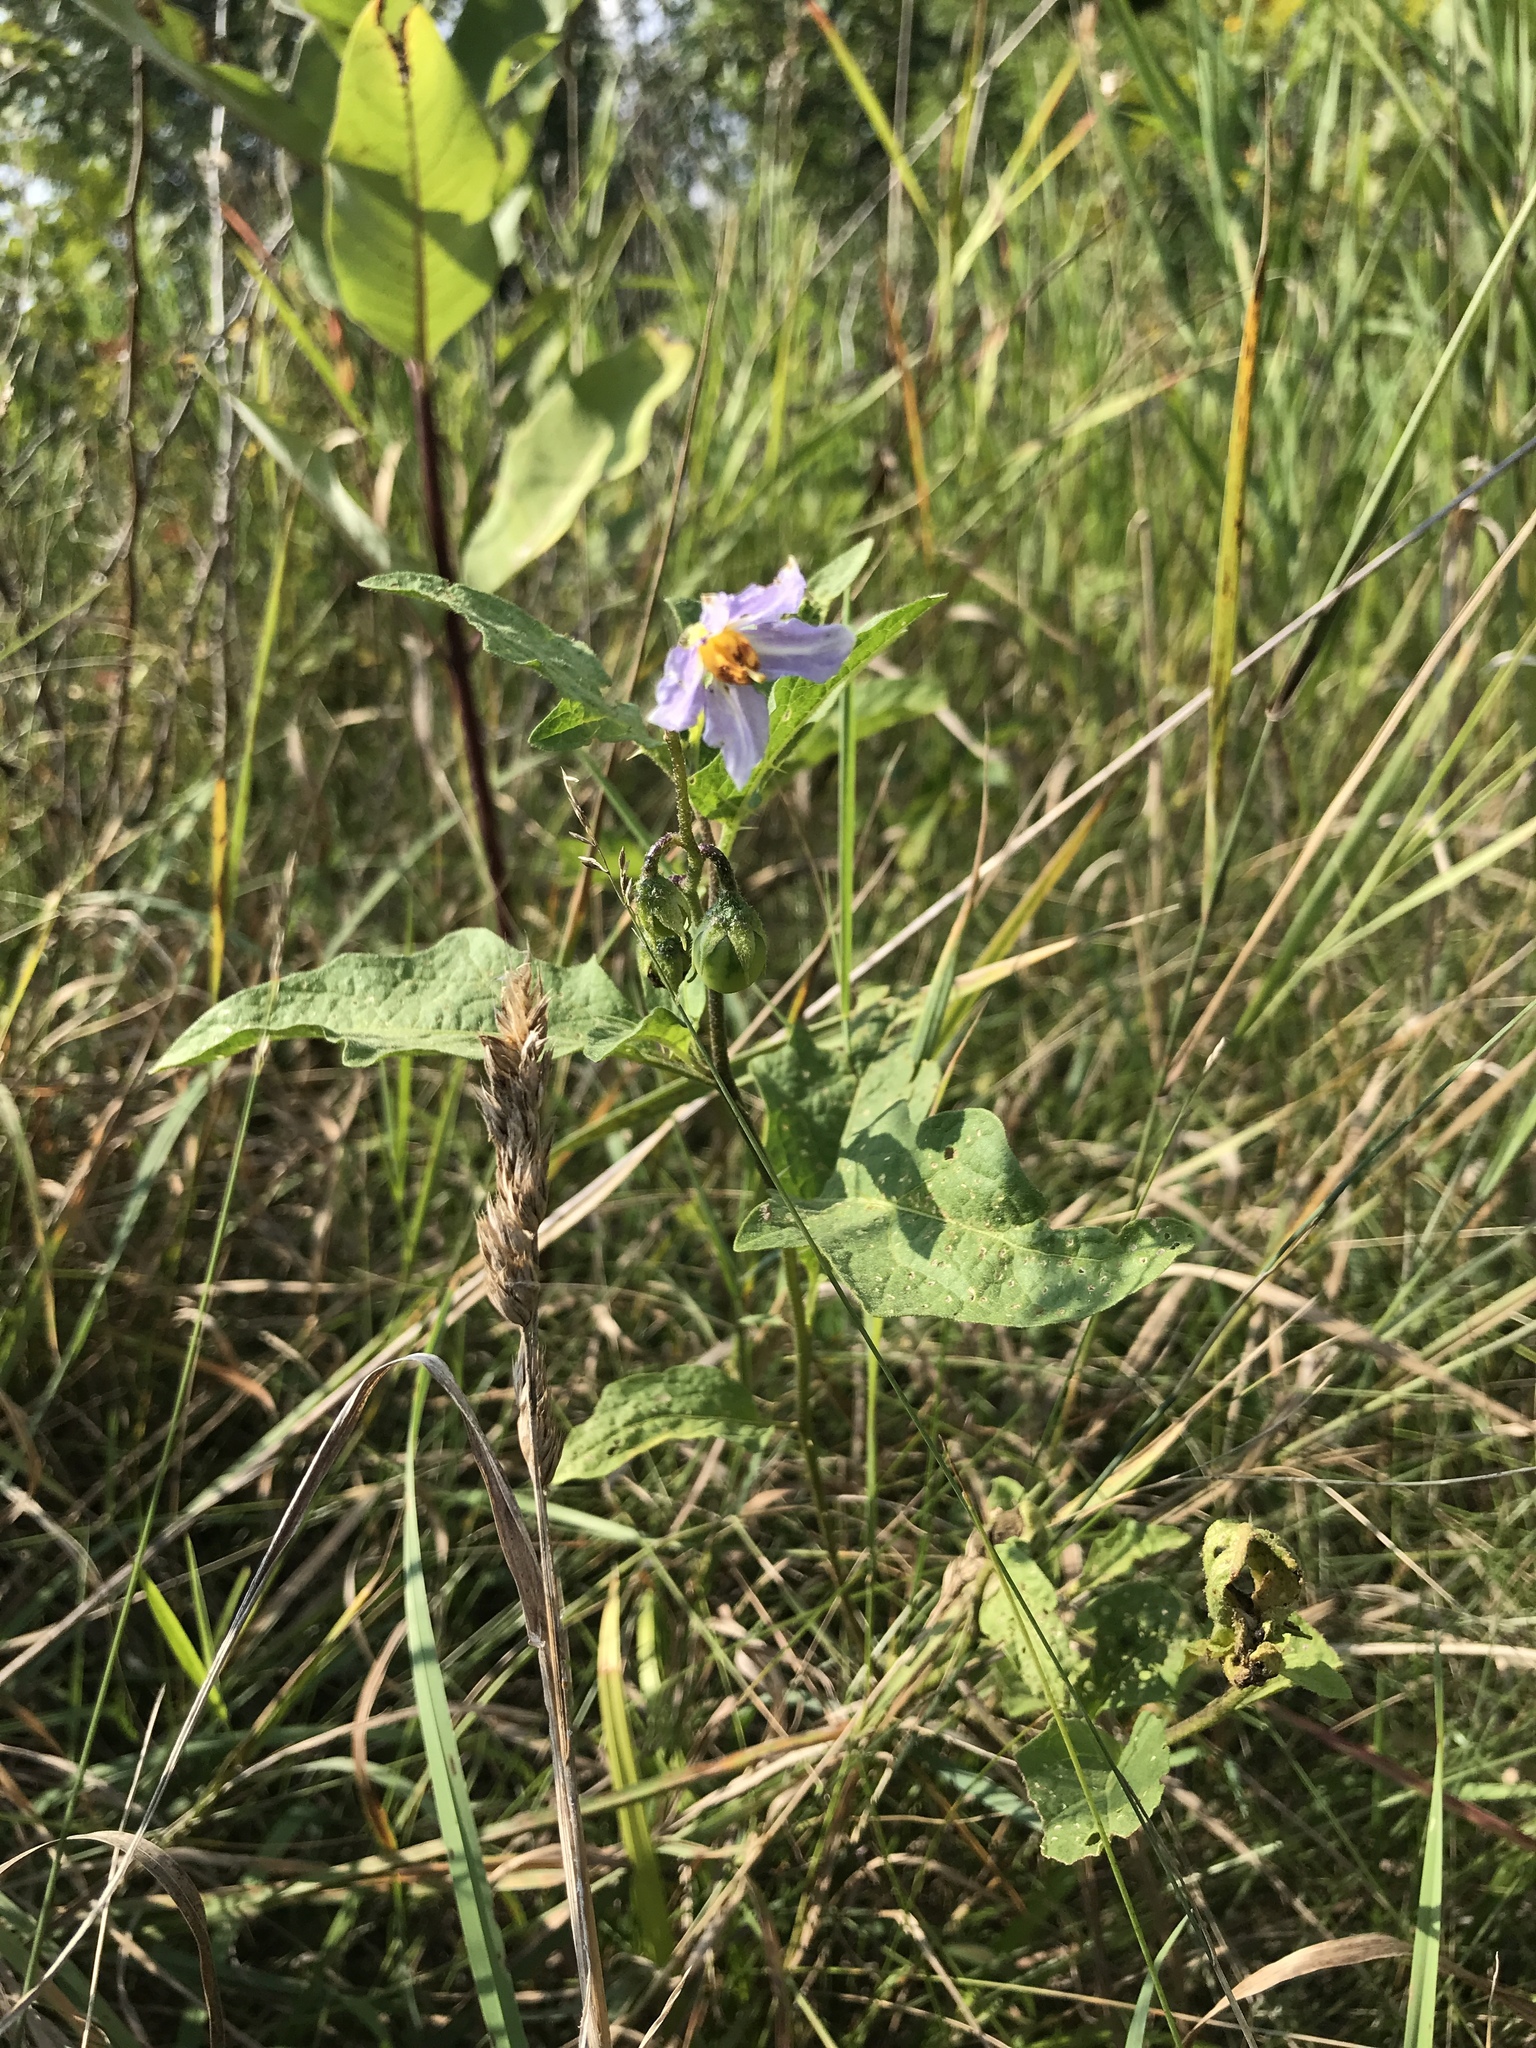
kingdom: Plantae
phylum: Tracheophyta
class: Magnoliopsida
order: Solanales
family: Solanaceae
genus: Solanum
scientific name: Solanum carolinense
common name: Horse-nettle
